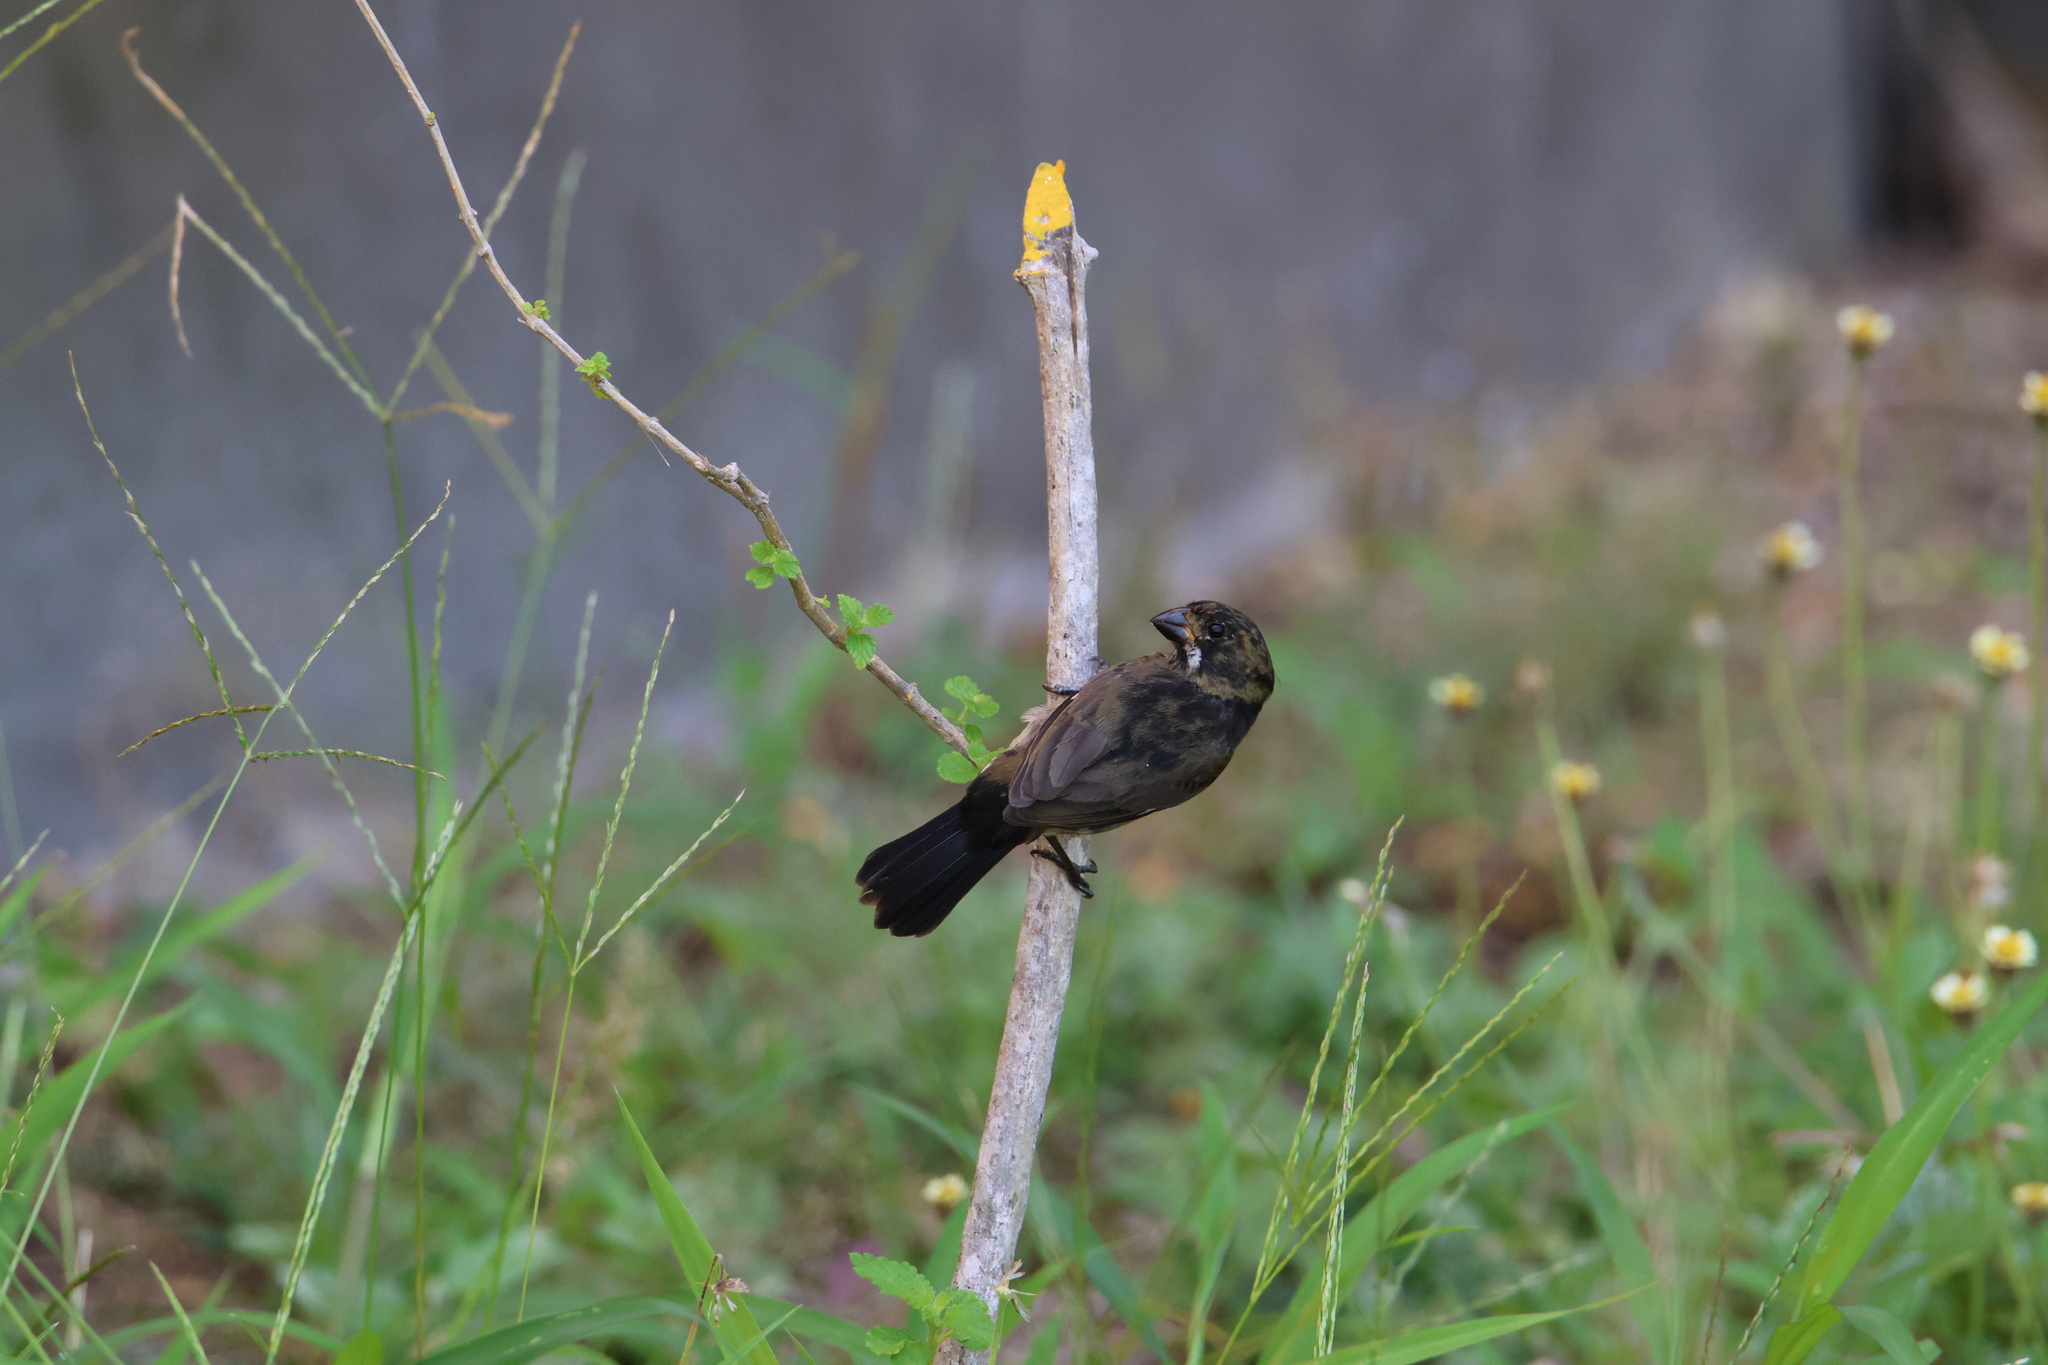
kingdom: Animalia
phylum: Chordata
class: Aves
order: Passeriformes
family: Thraupidae
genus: Sporophila
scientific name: Sporophila corvina
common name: Variable seedeater
